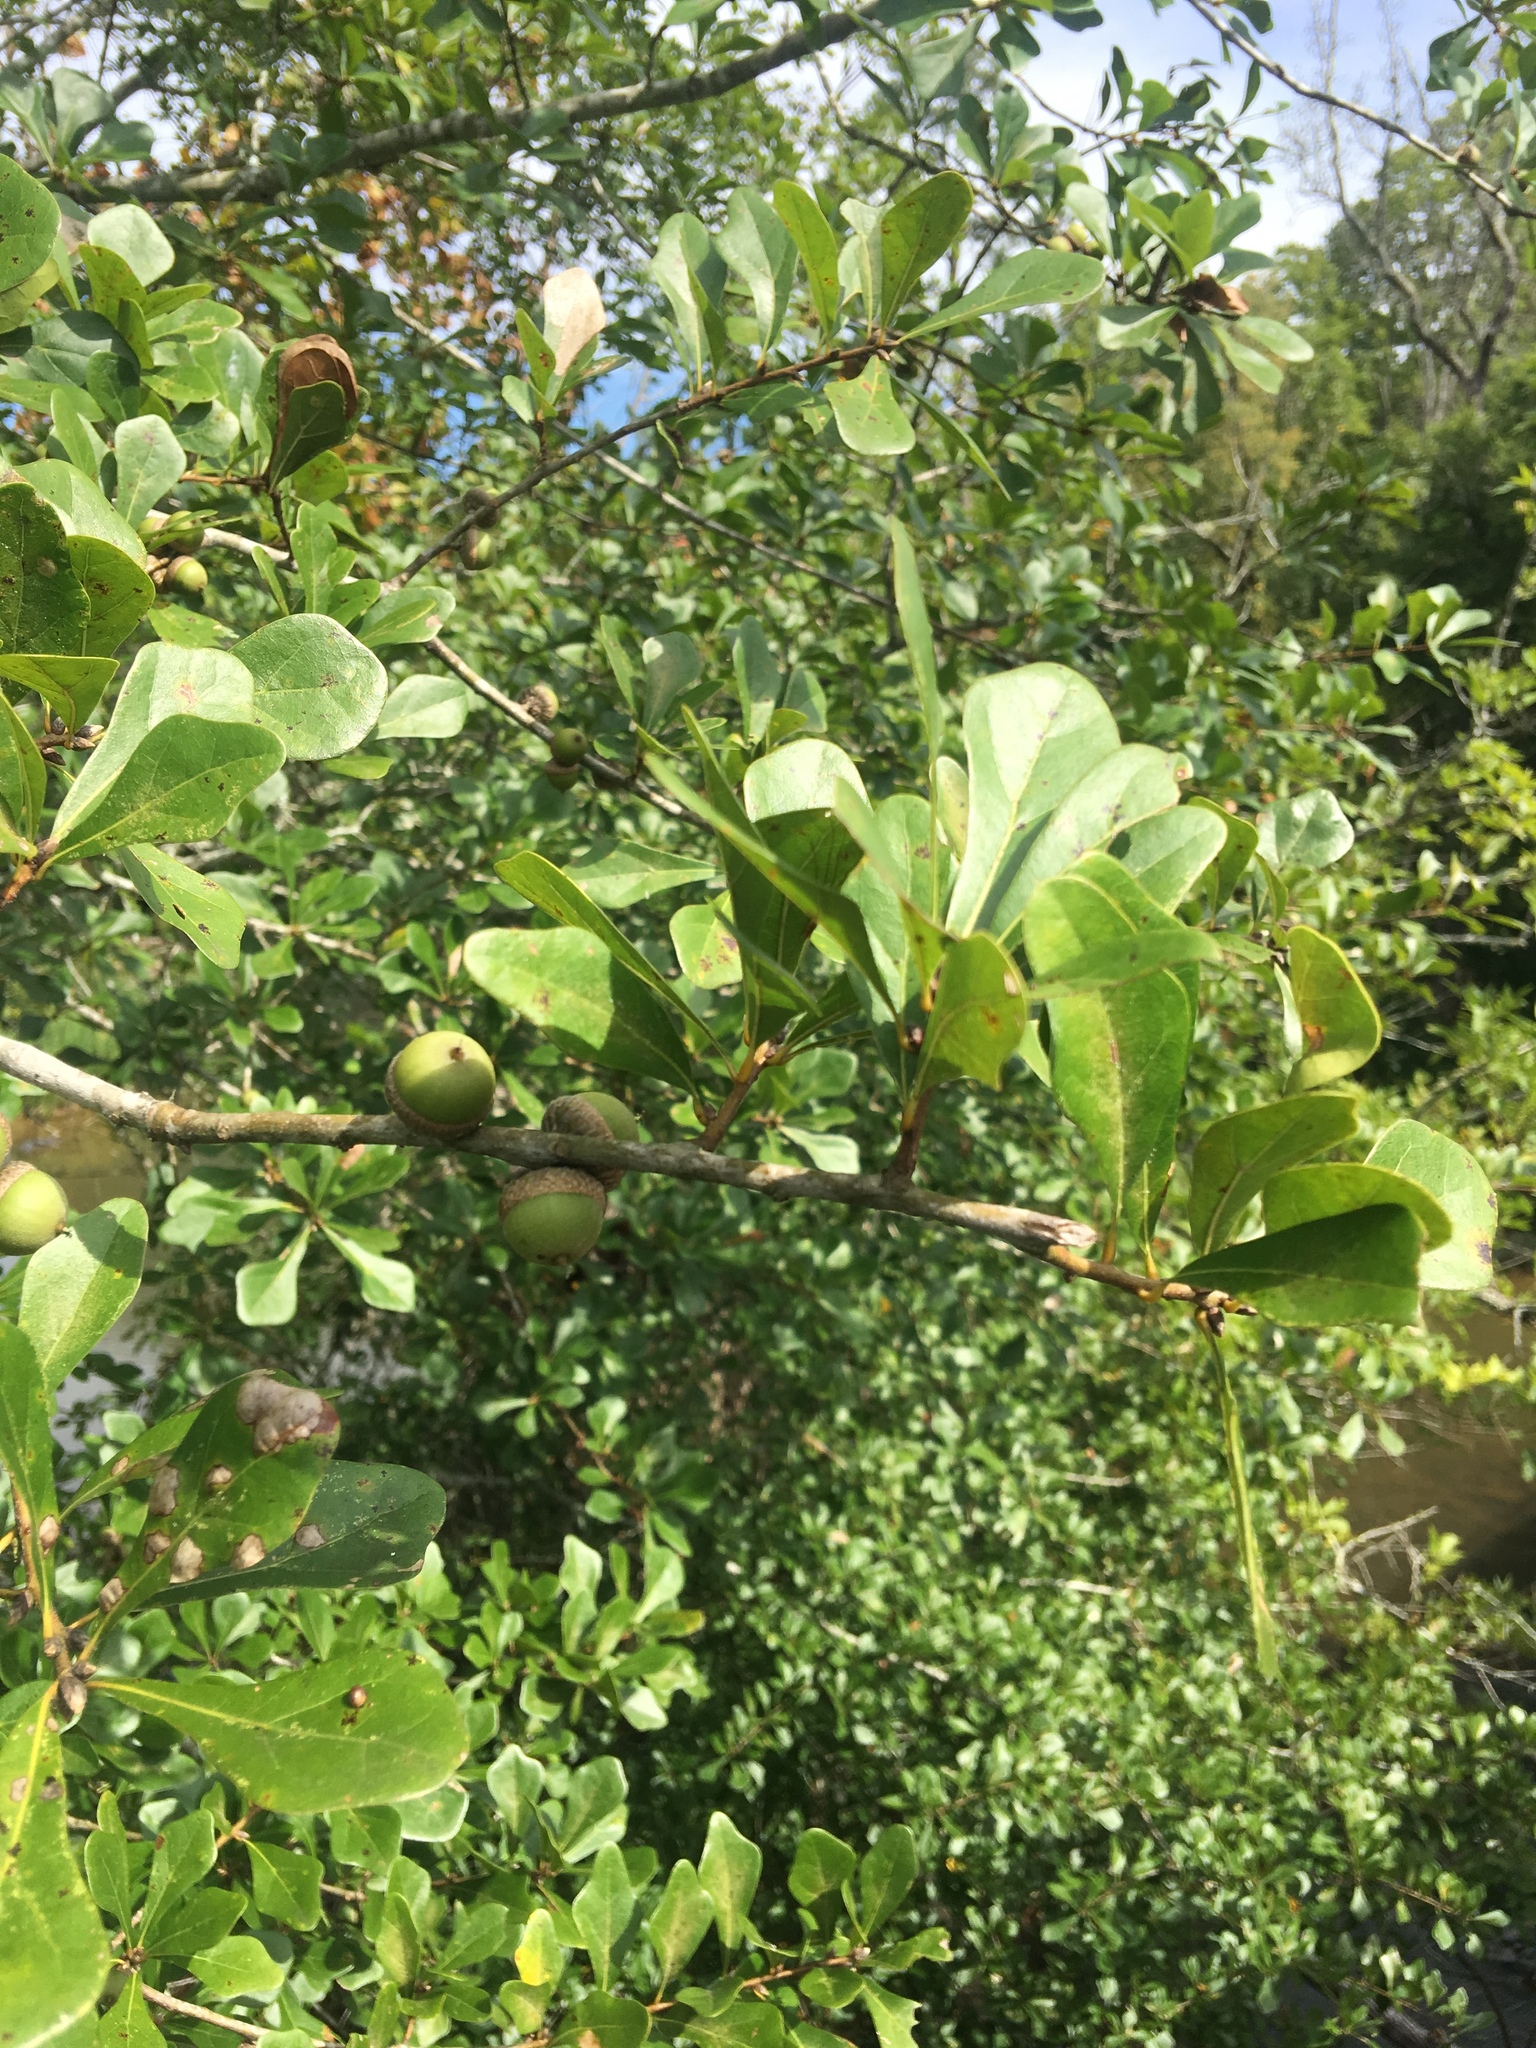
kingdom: Plantae
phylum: Tracheophyta
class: Magnoliopsida
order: Fagales
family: Fagaceae
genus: Quercus
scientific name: Quercus nigra
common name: Water oak
